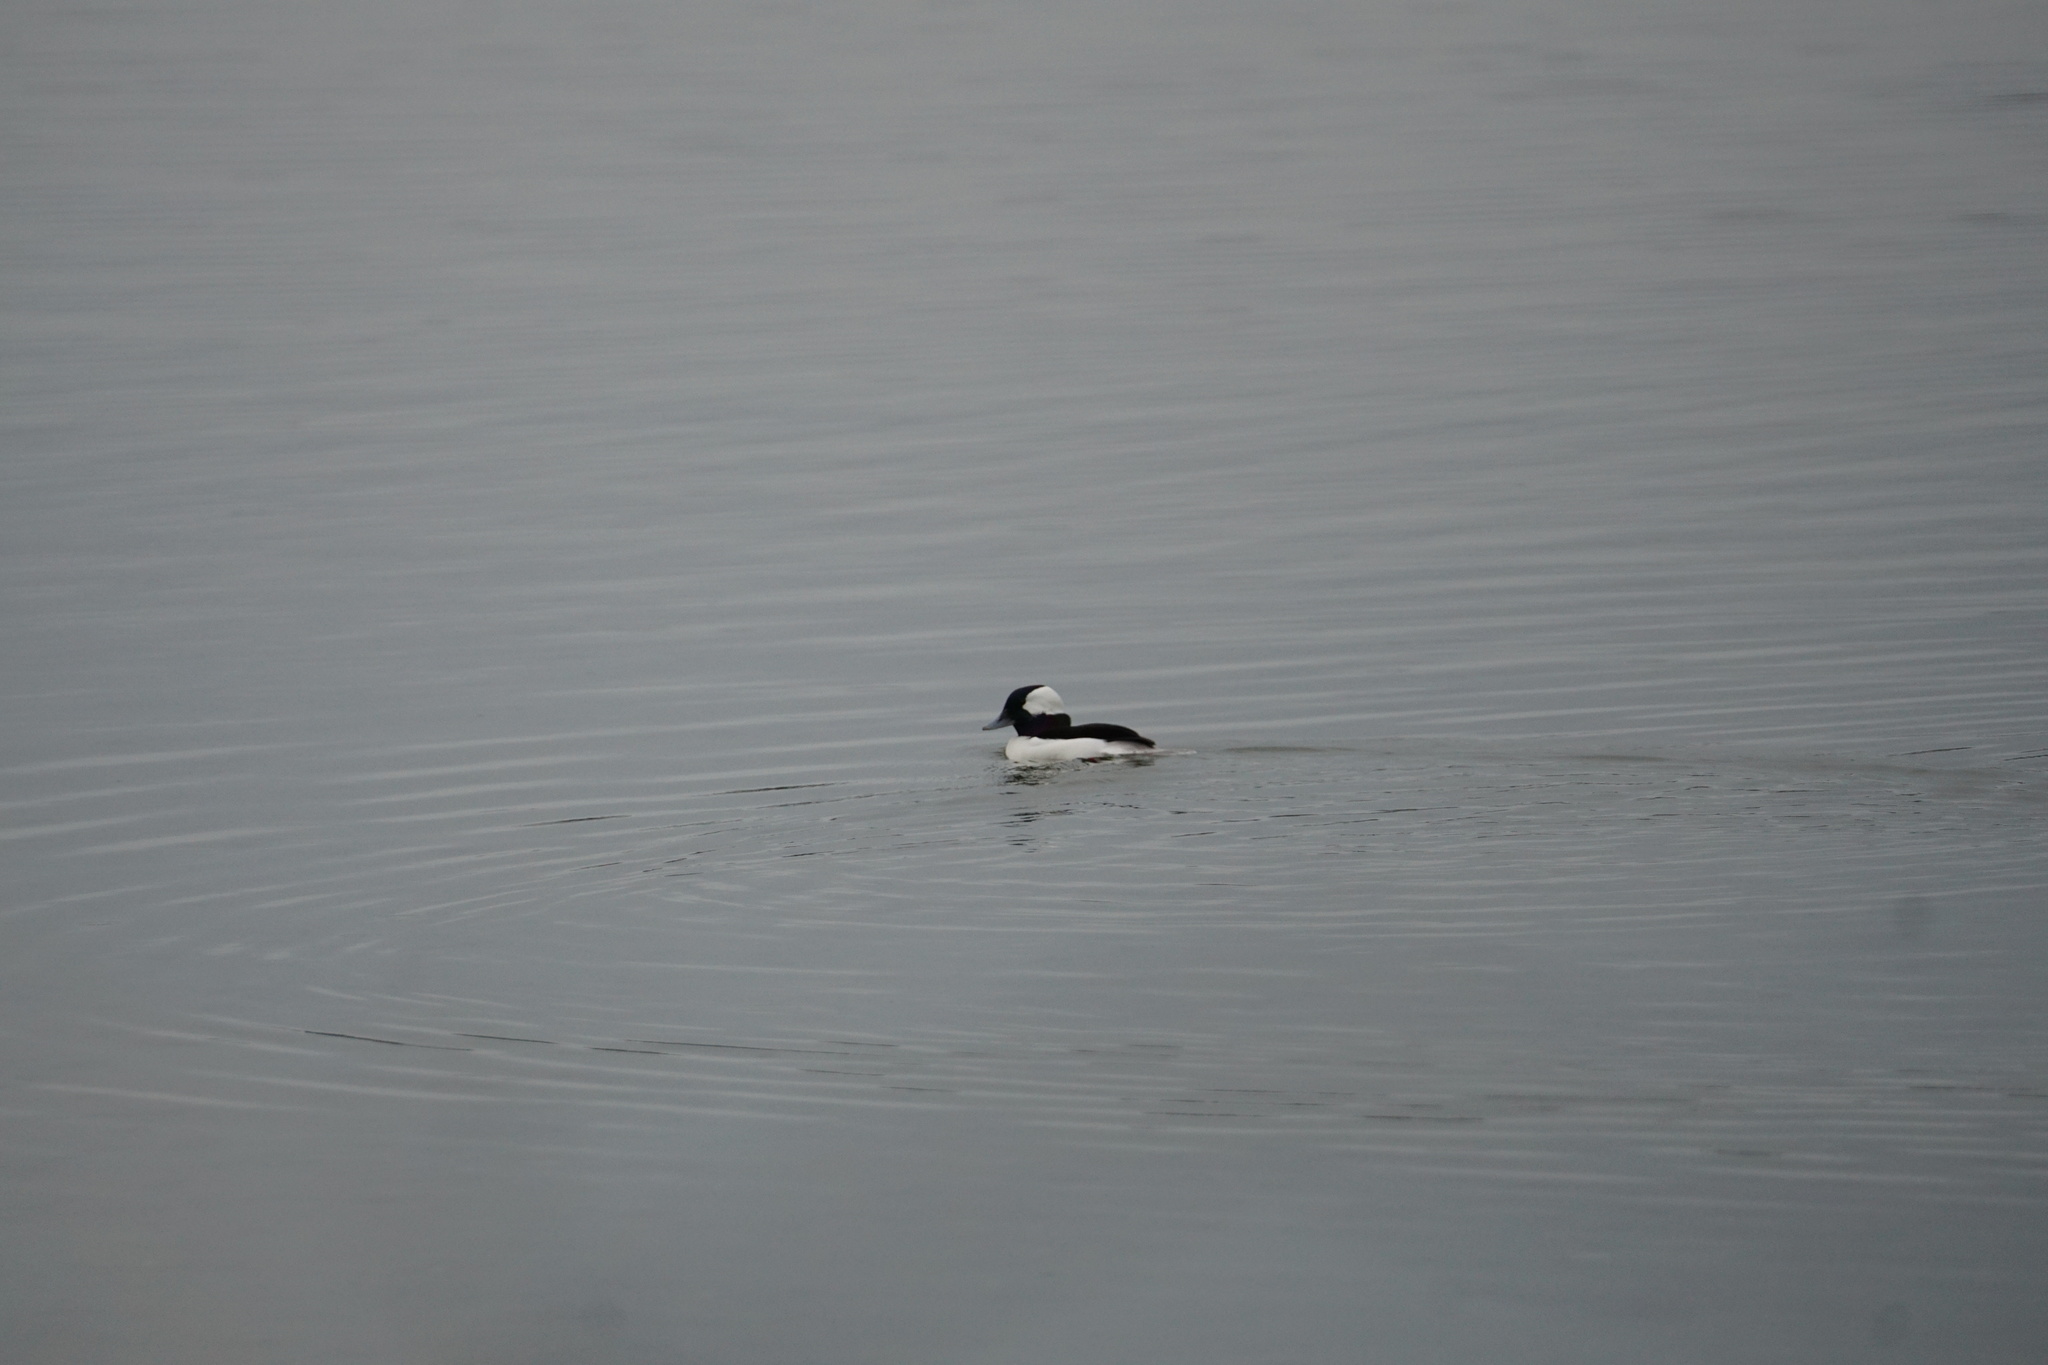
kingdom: Animalia
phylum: Chordata
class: Aves
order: Anseriformes
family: Anatidae
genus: Bucephala
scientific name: Bucephala albeola
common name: Bufflehead
